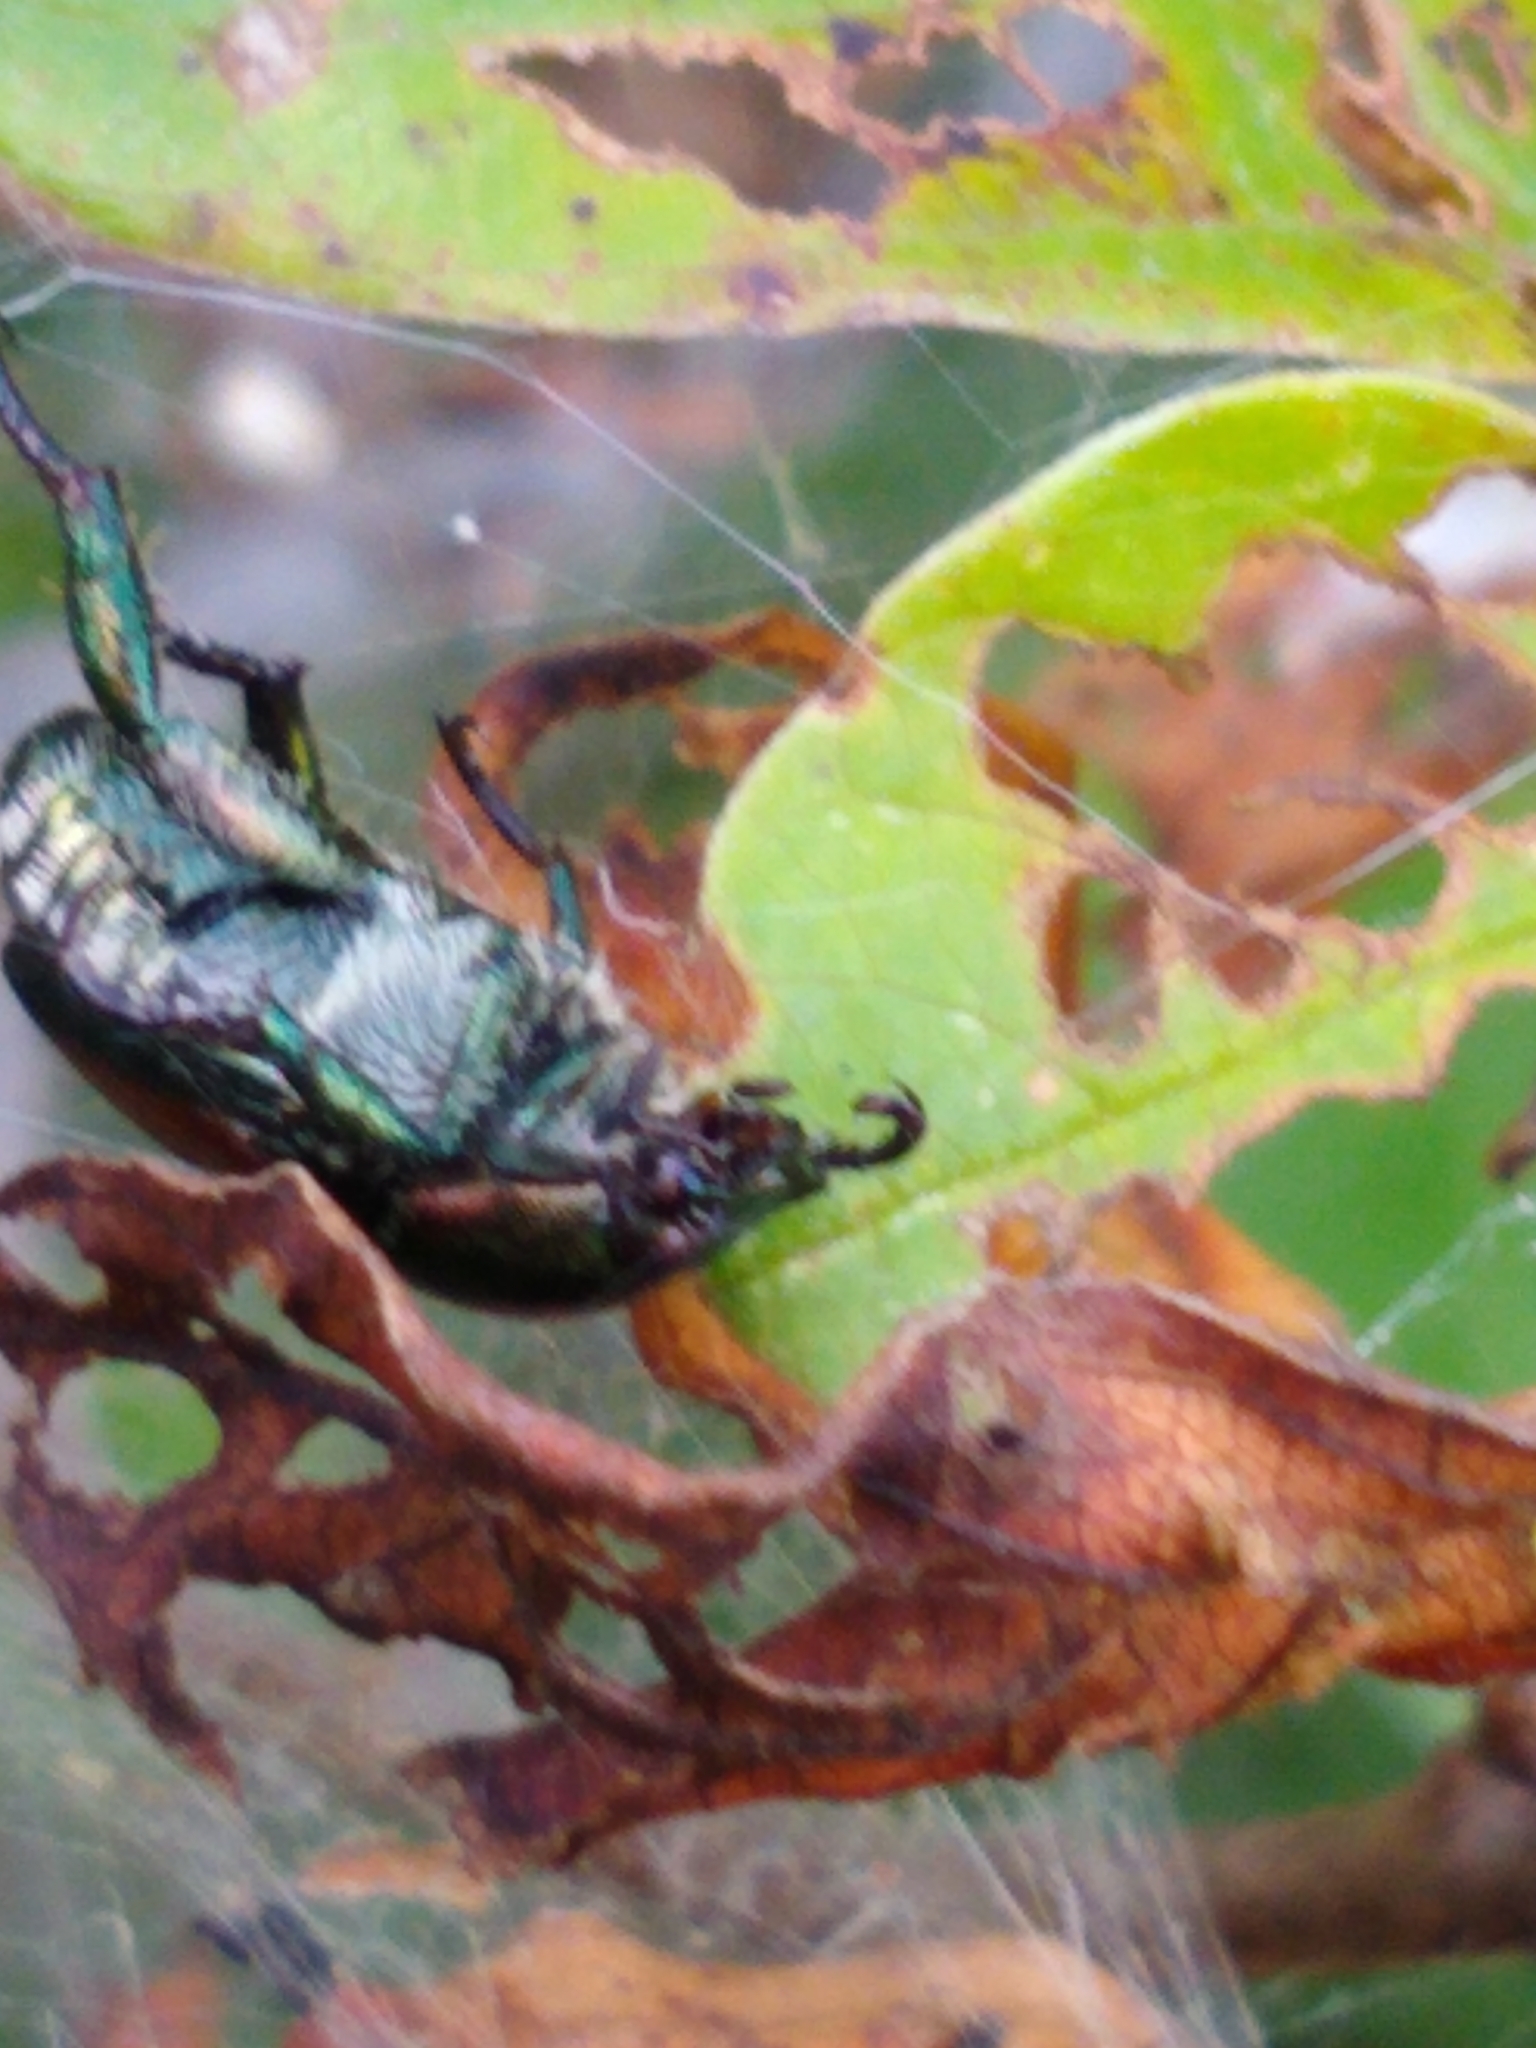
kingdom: Animalia
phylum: Arthropoda
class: Insecta
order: Coleoptera
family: Scarabaeidae
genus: Popillia
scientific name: Popillia japonica
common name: Japanese beetle
